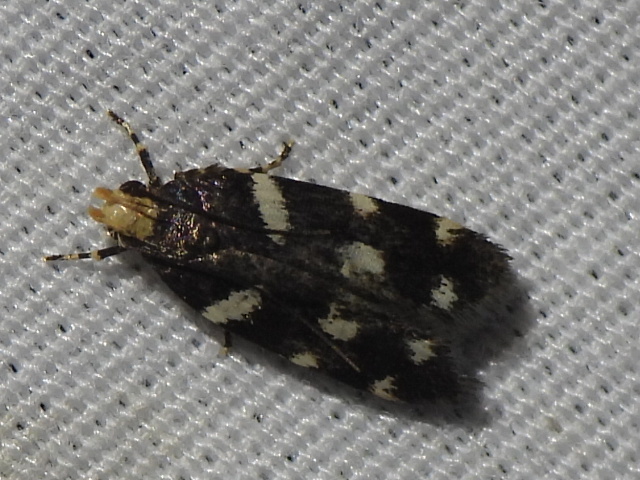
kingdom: Animalia
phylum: Arthropoda
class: Insecta
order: Lepidoptera
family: Gelechiidae
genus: Fascista
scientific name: Fascista quinella
